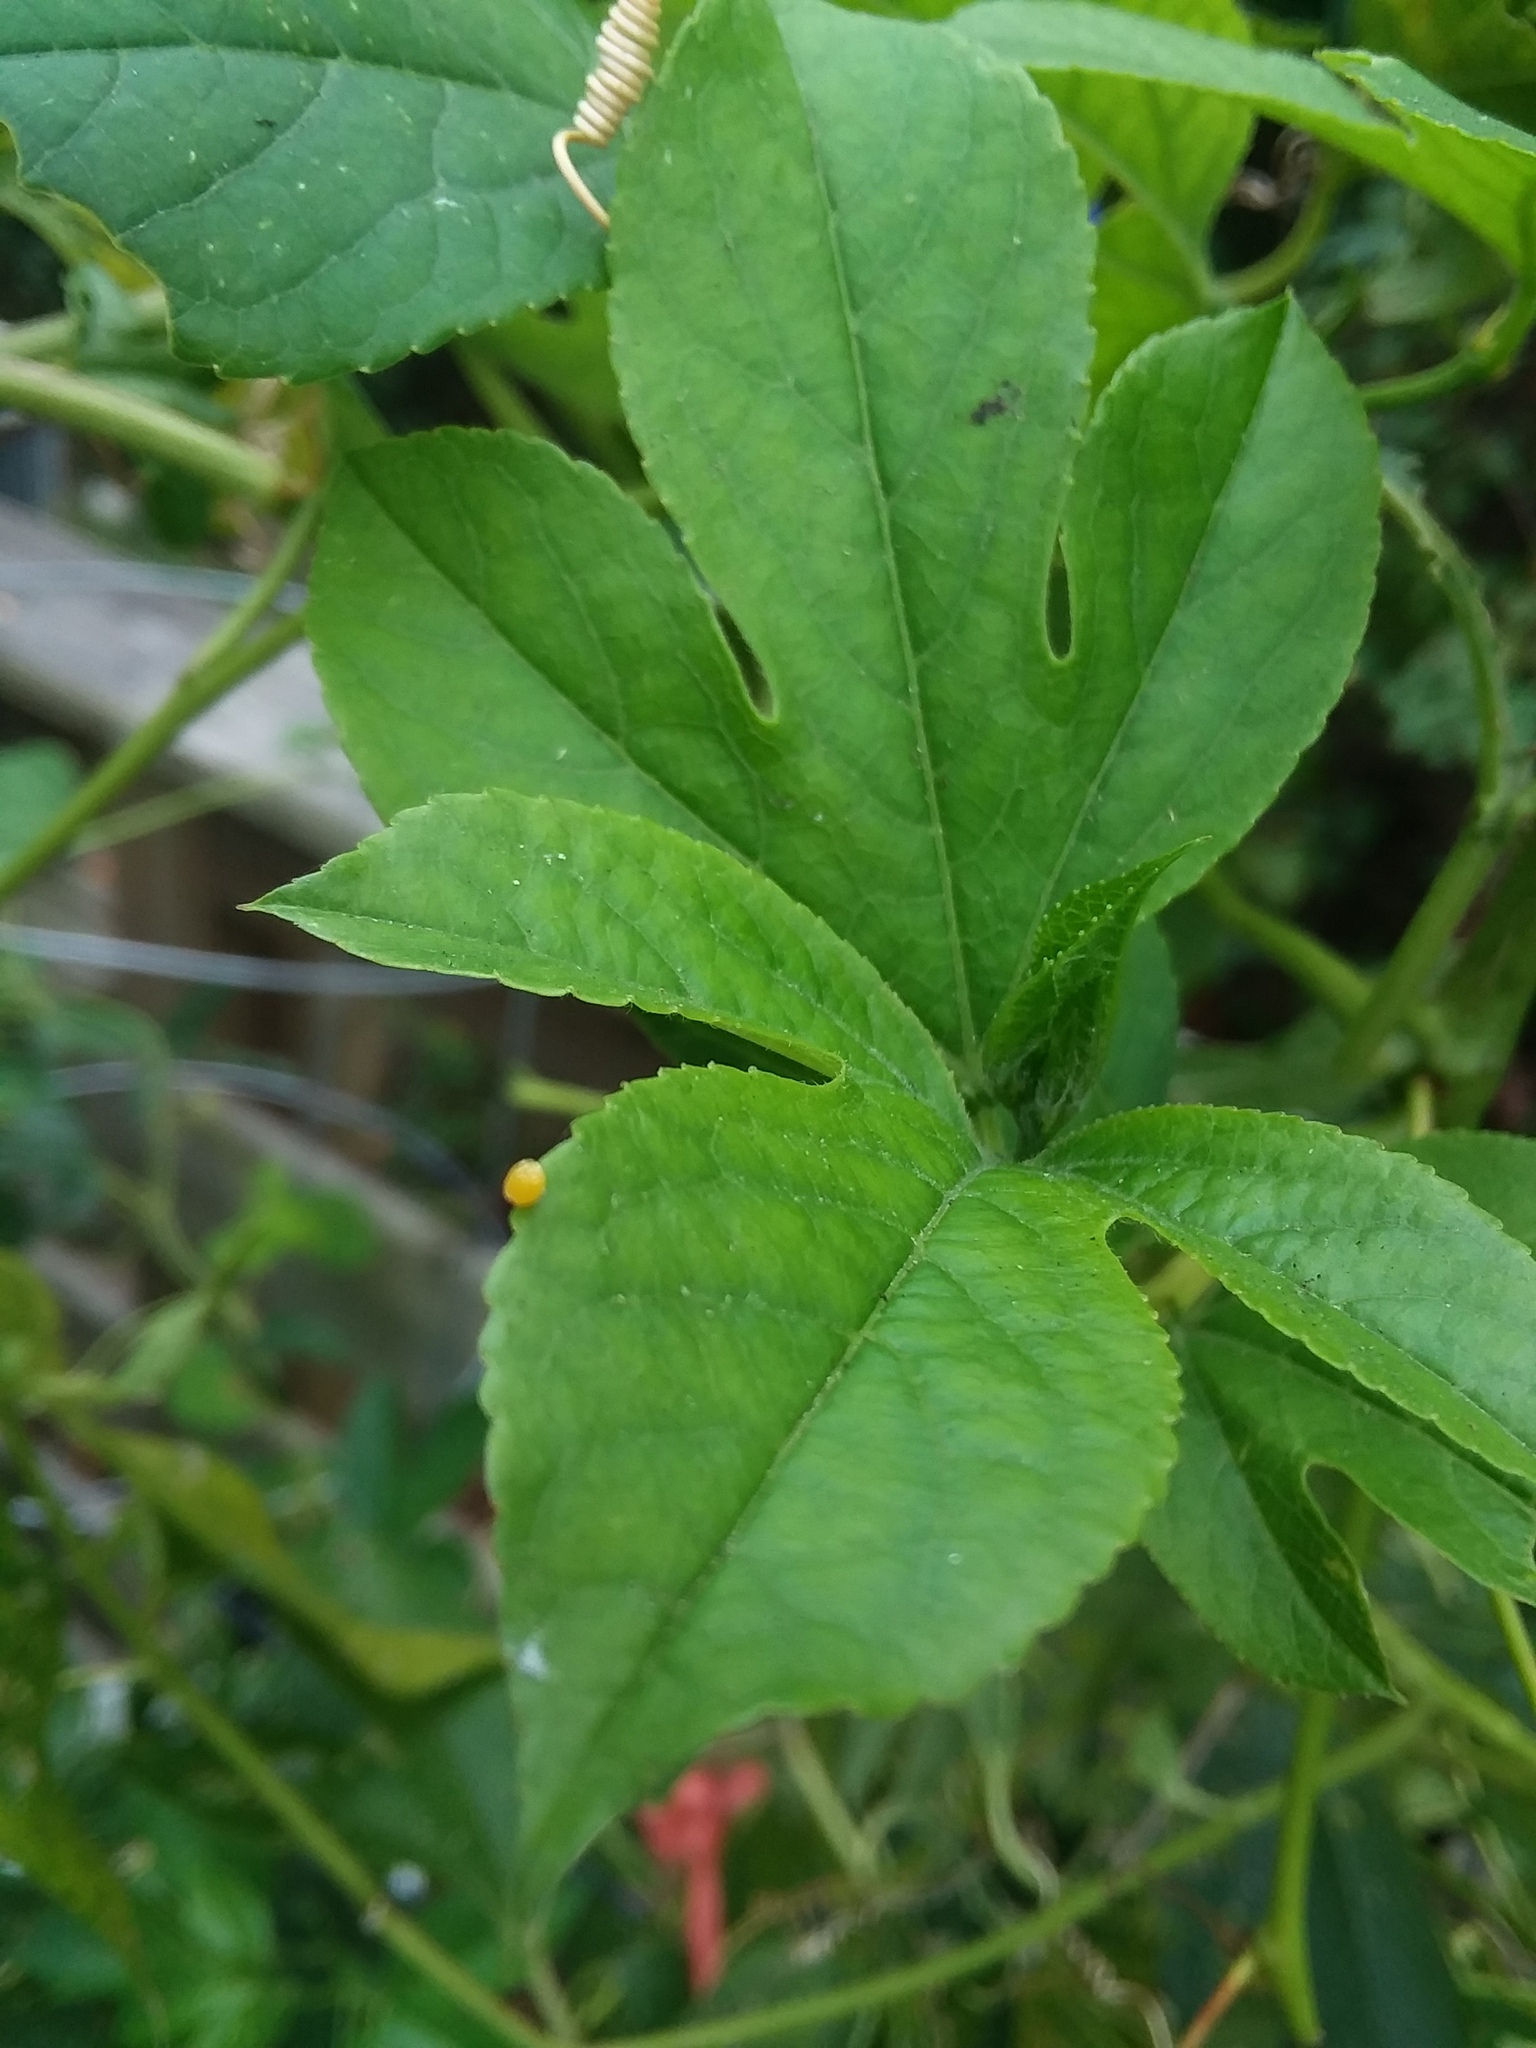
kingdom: Animalia
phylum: Arthropoda
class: Insecta
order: Lepidoptera
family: Nymphalidae
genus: Dione
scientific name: Dione vanillae
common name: Gulf fritillary
